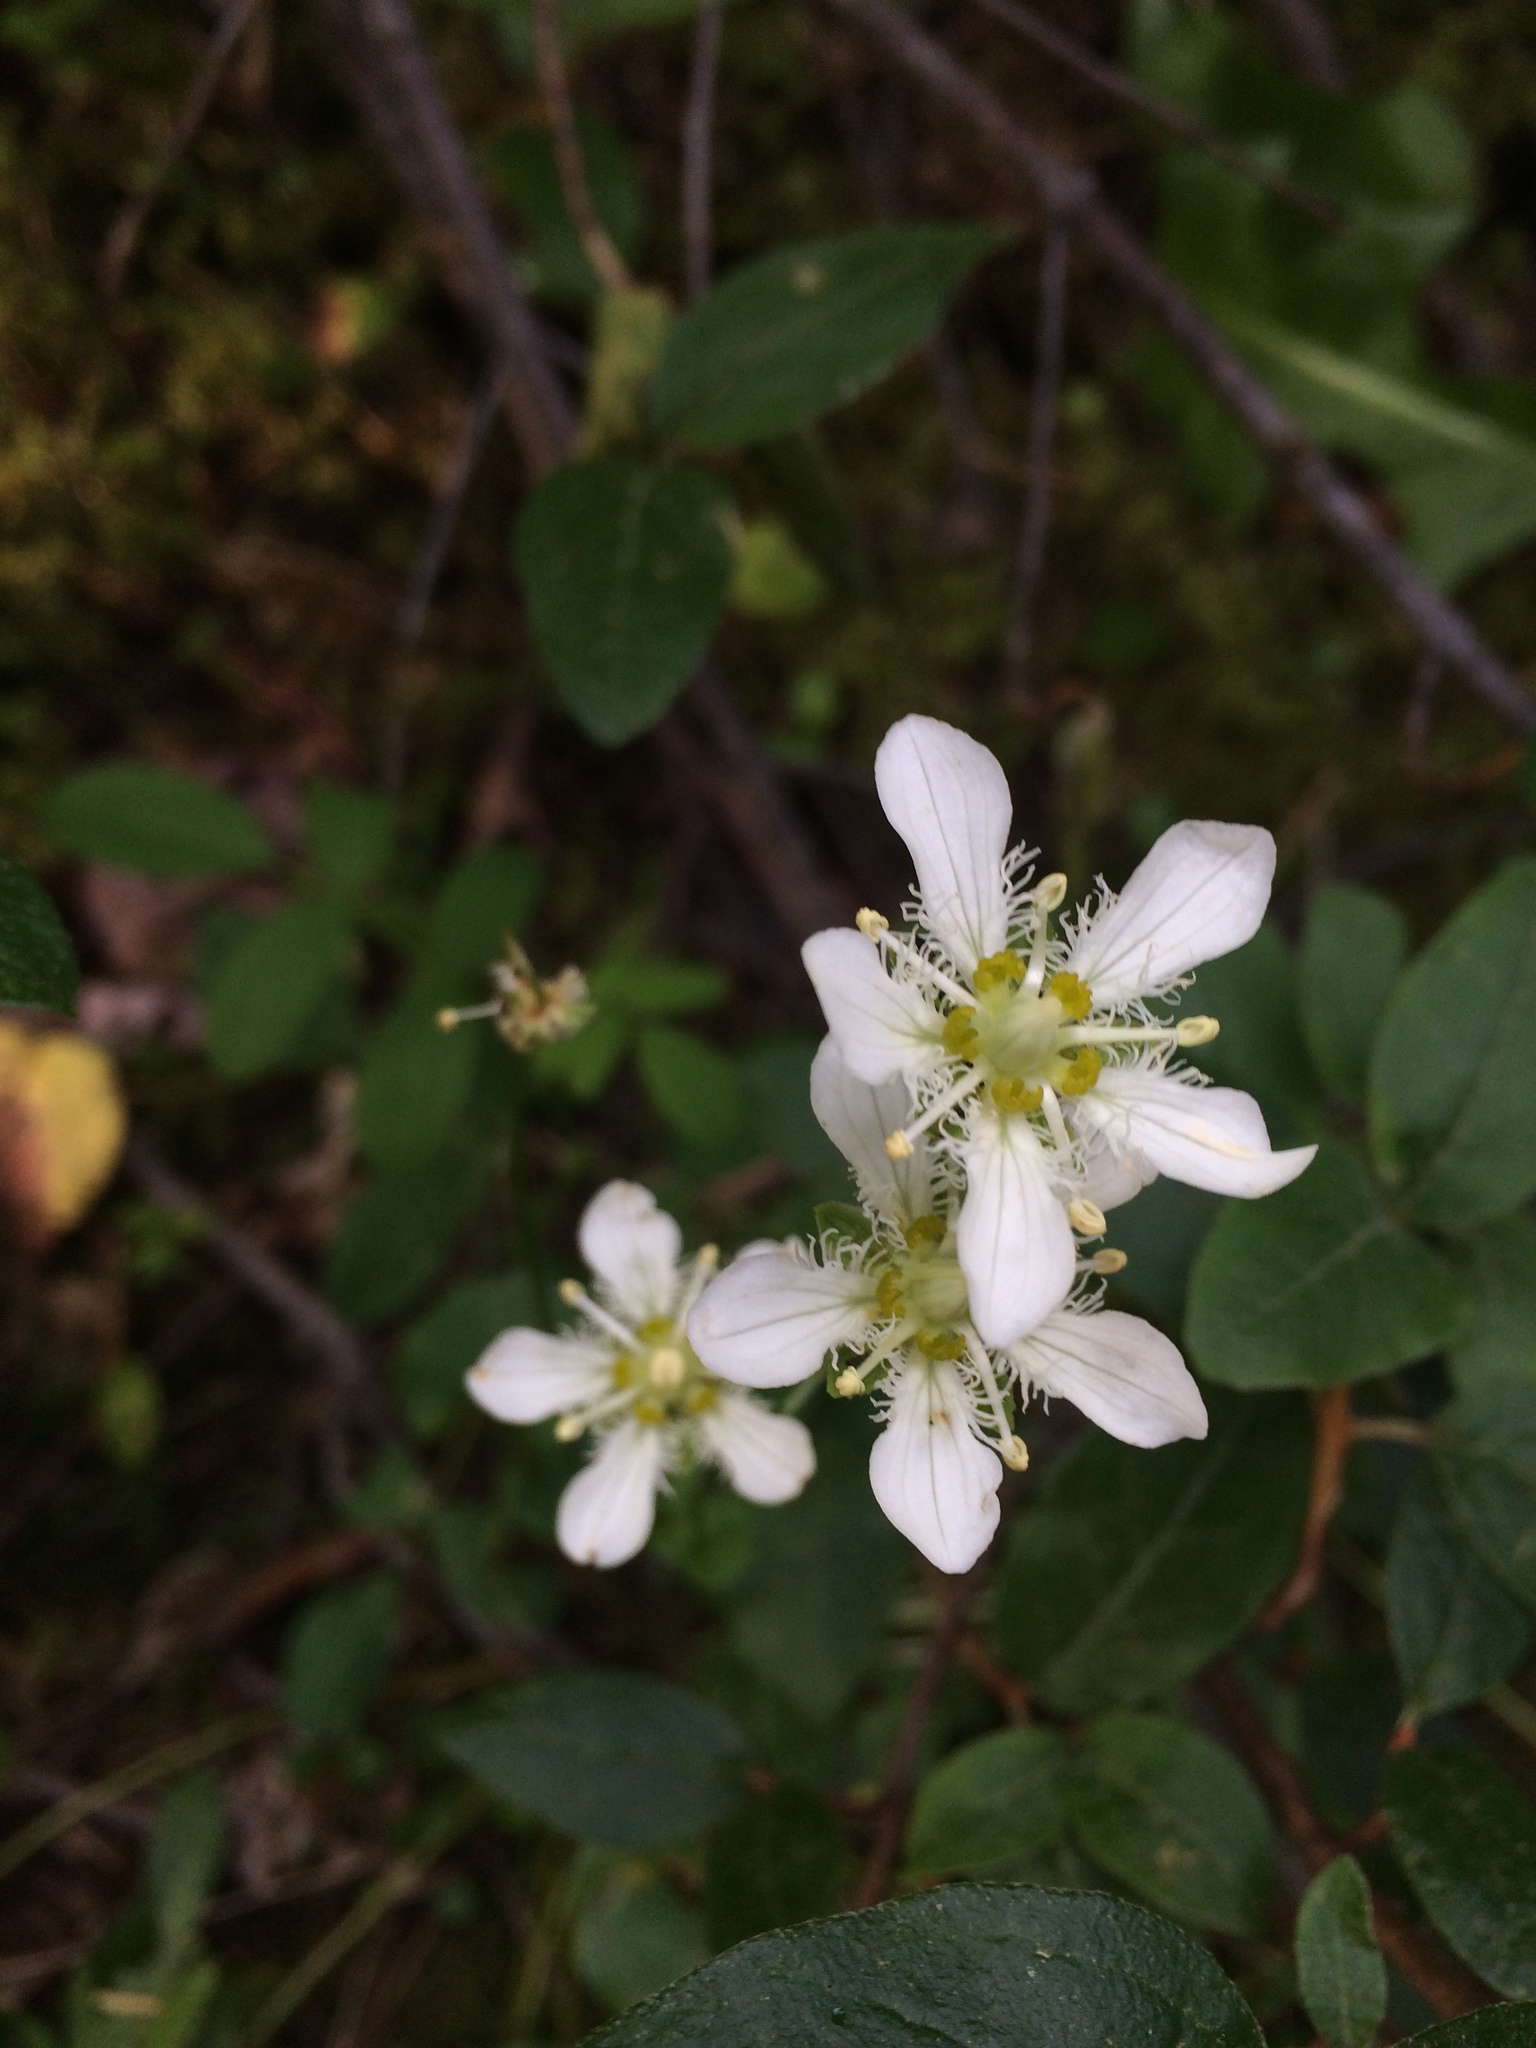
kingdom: Plantae
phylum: Tracheophyta
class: Magnoliopsida
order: Celastrales
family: Parnassiaceae
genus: Parnassia
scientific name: Parnassia fimbriata
